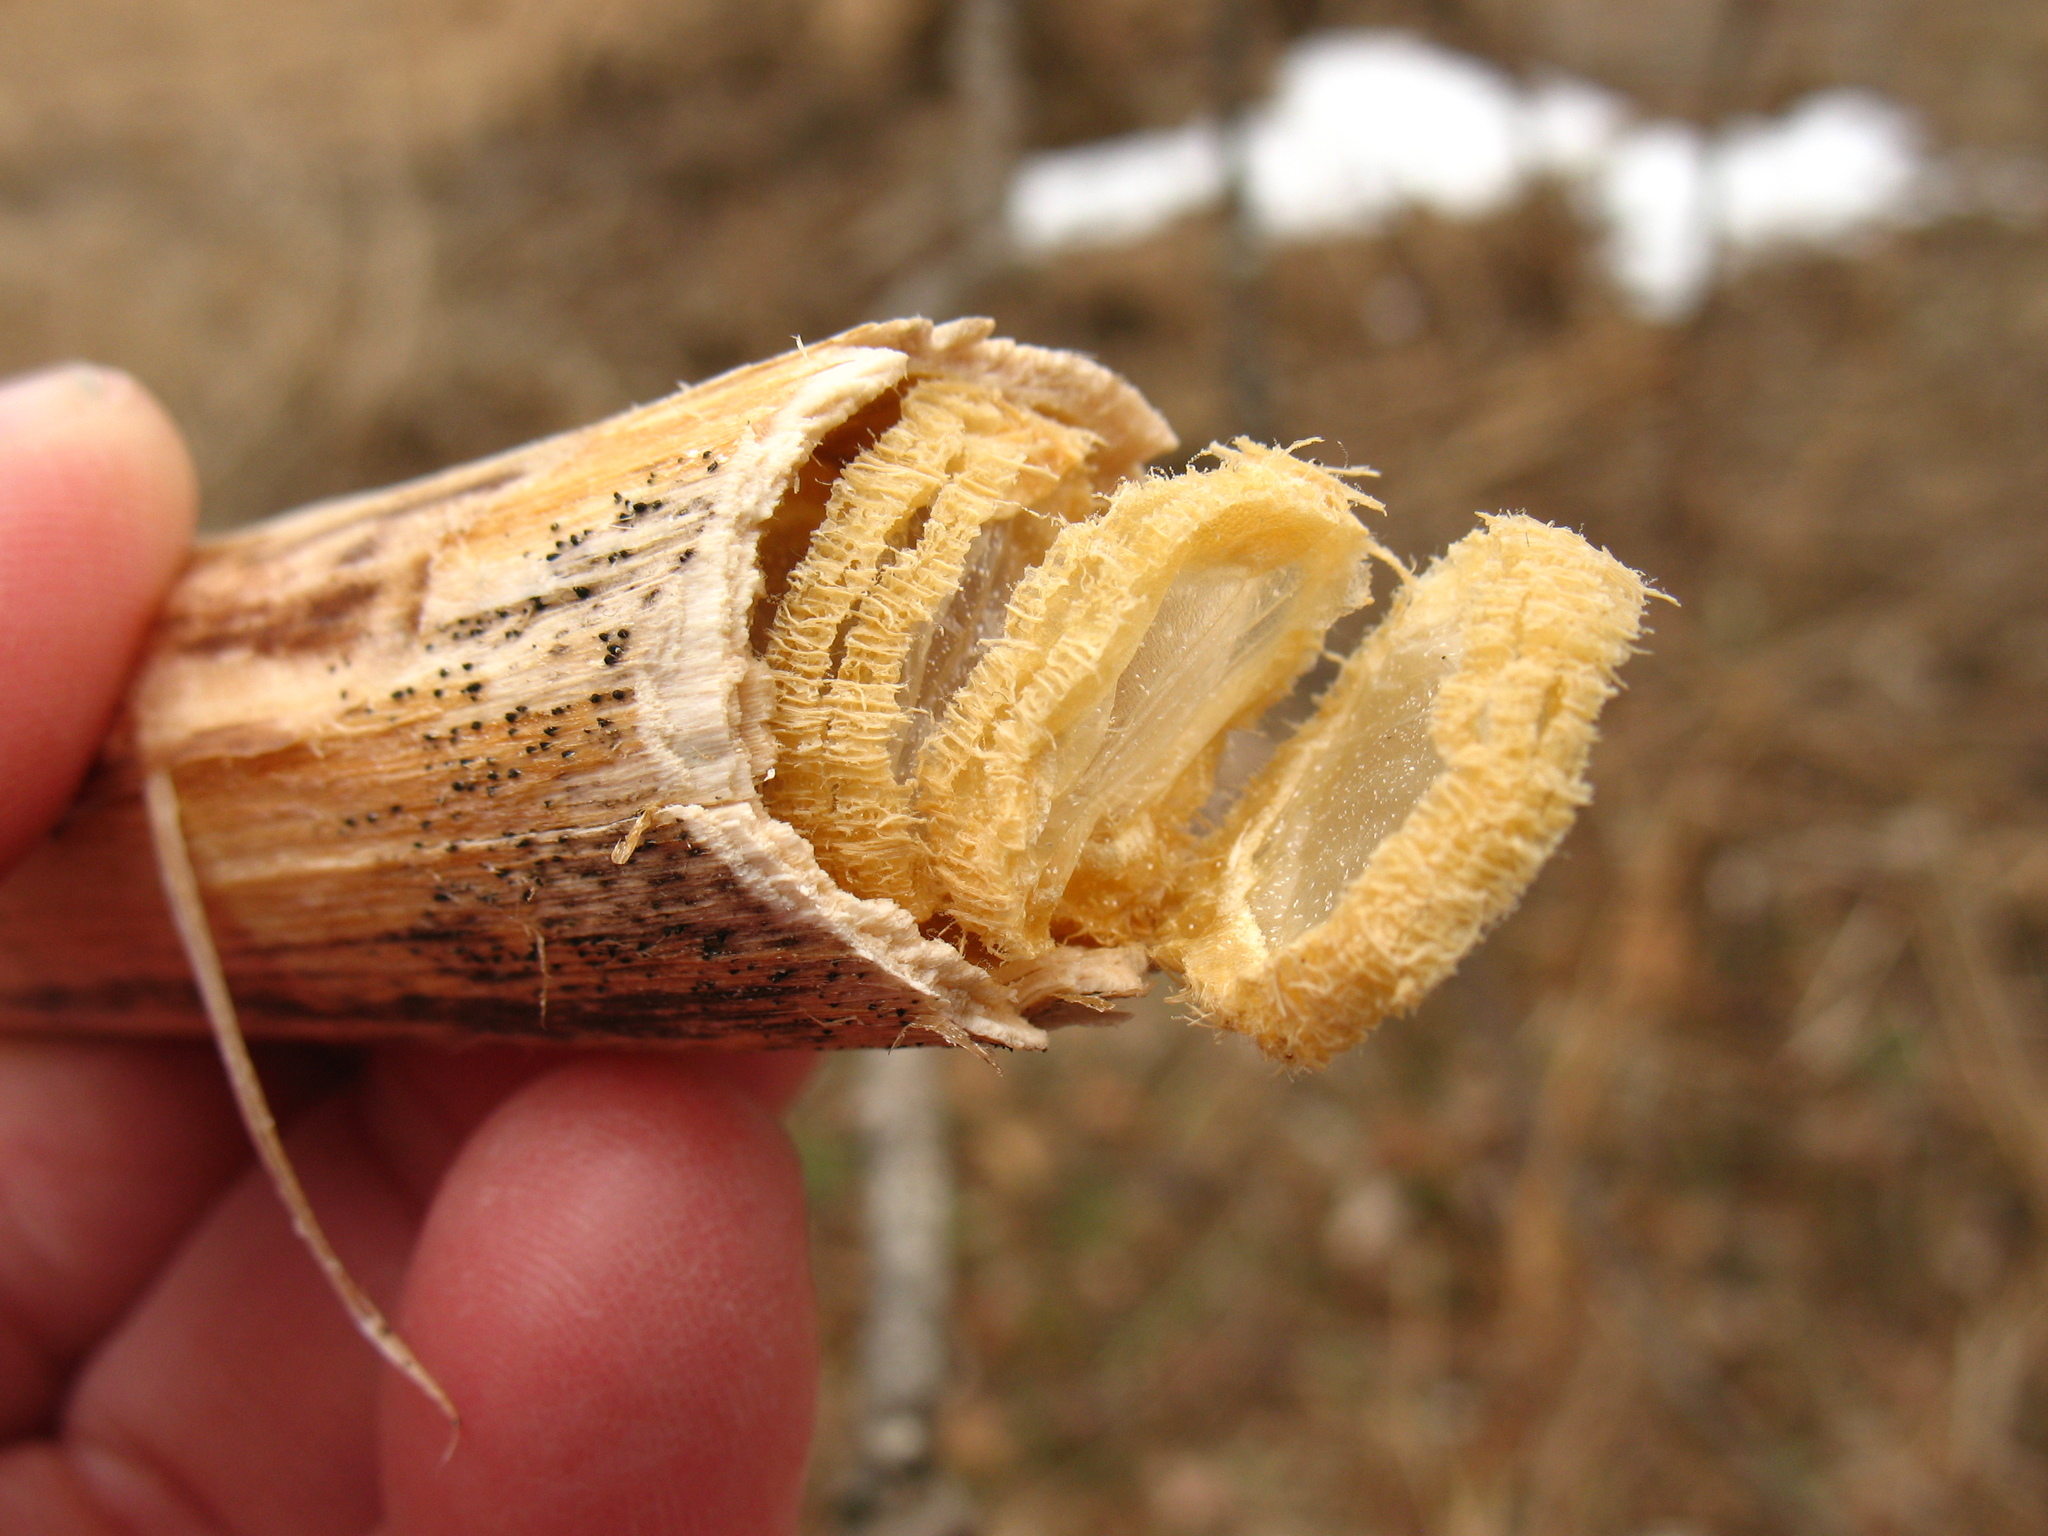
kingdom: Plantae
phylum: Tracheophyta
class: Magnoliopsida
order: Caryophyllales
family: Phytolaccaceae
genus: Phytolacca
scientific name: Phytolacca americana
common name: American pokeweed
